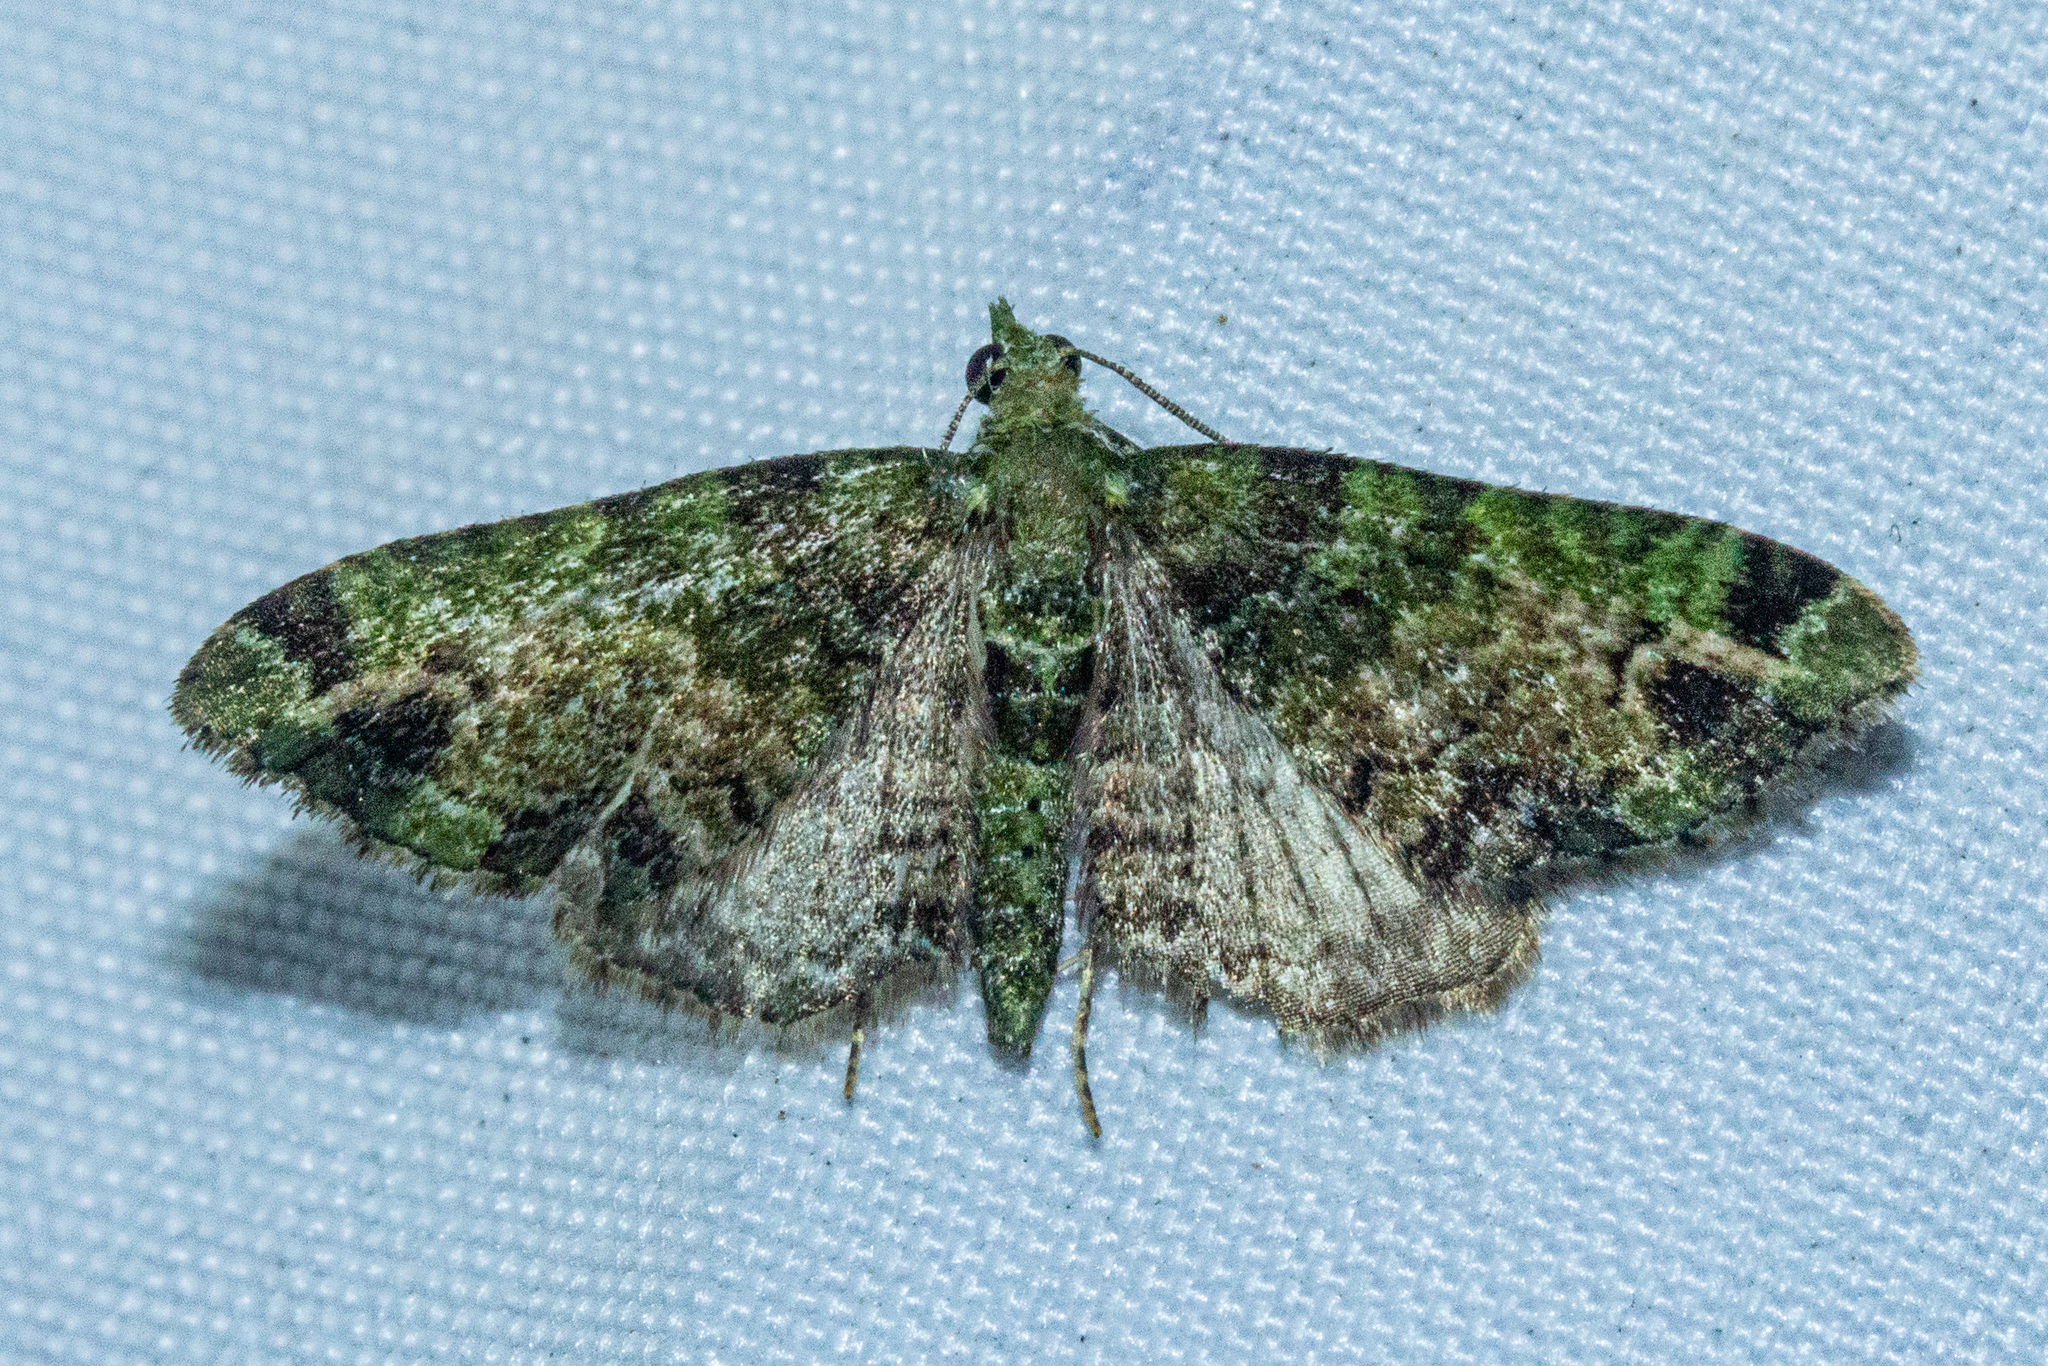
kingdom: Animalia
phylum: Arthropoda
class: Insecta
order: Lepidoptera
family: Geometridae
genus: Pasiphila
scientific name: Pasiphila malachita
